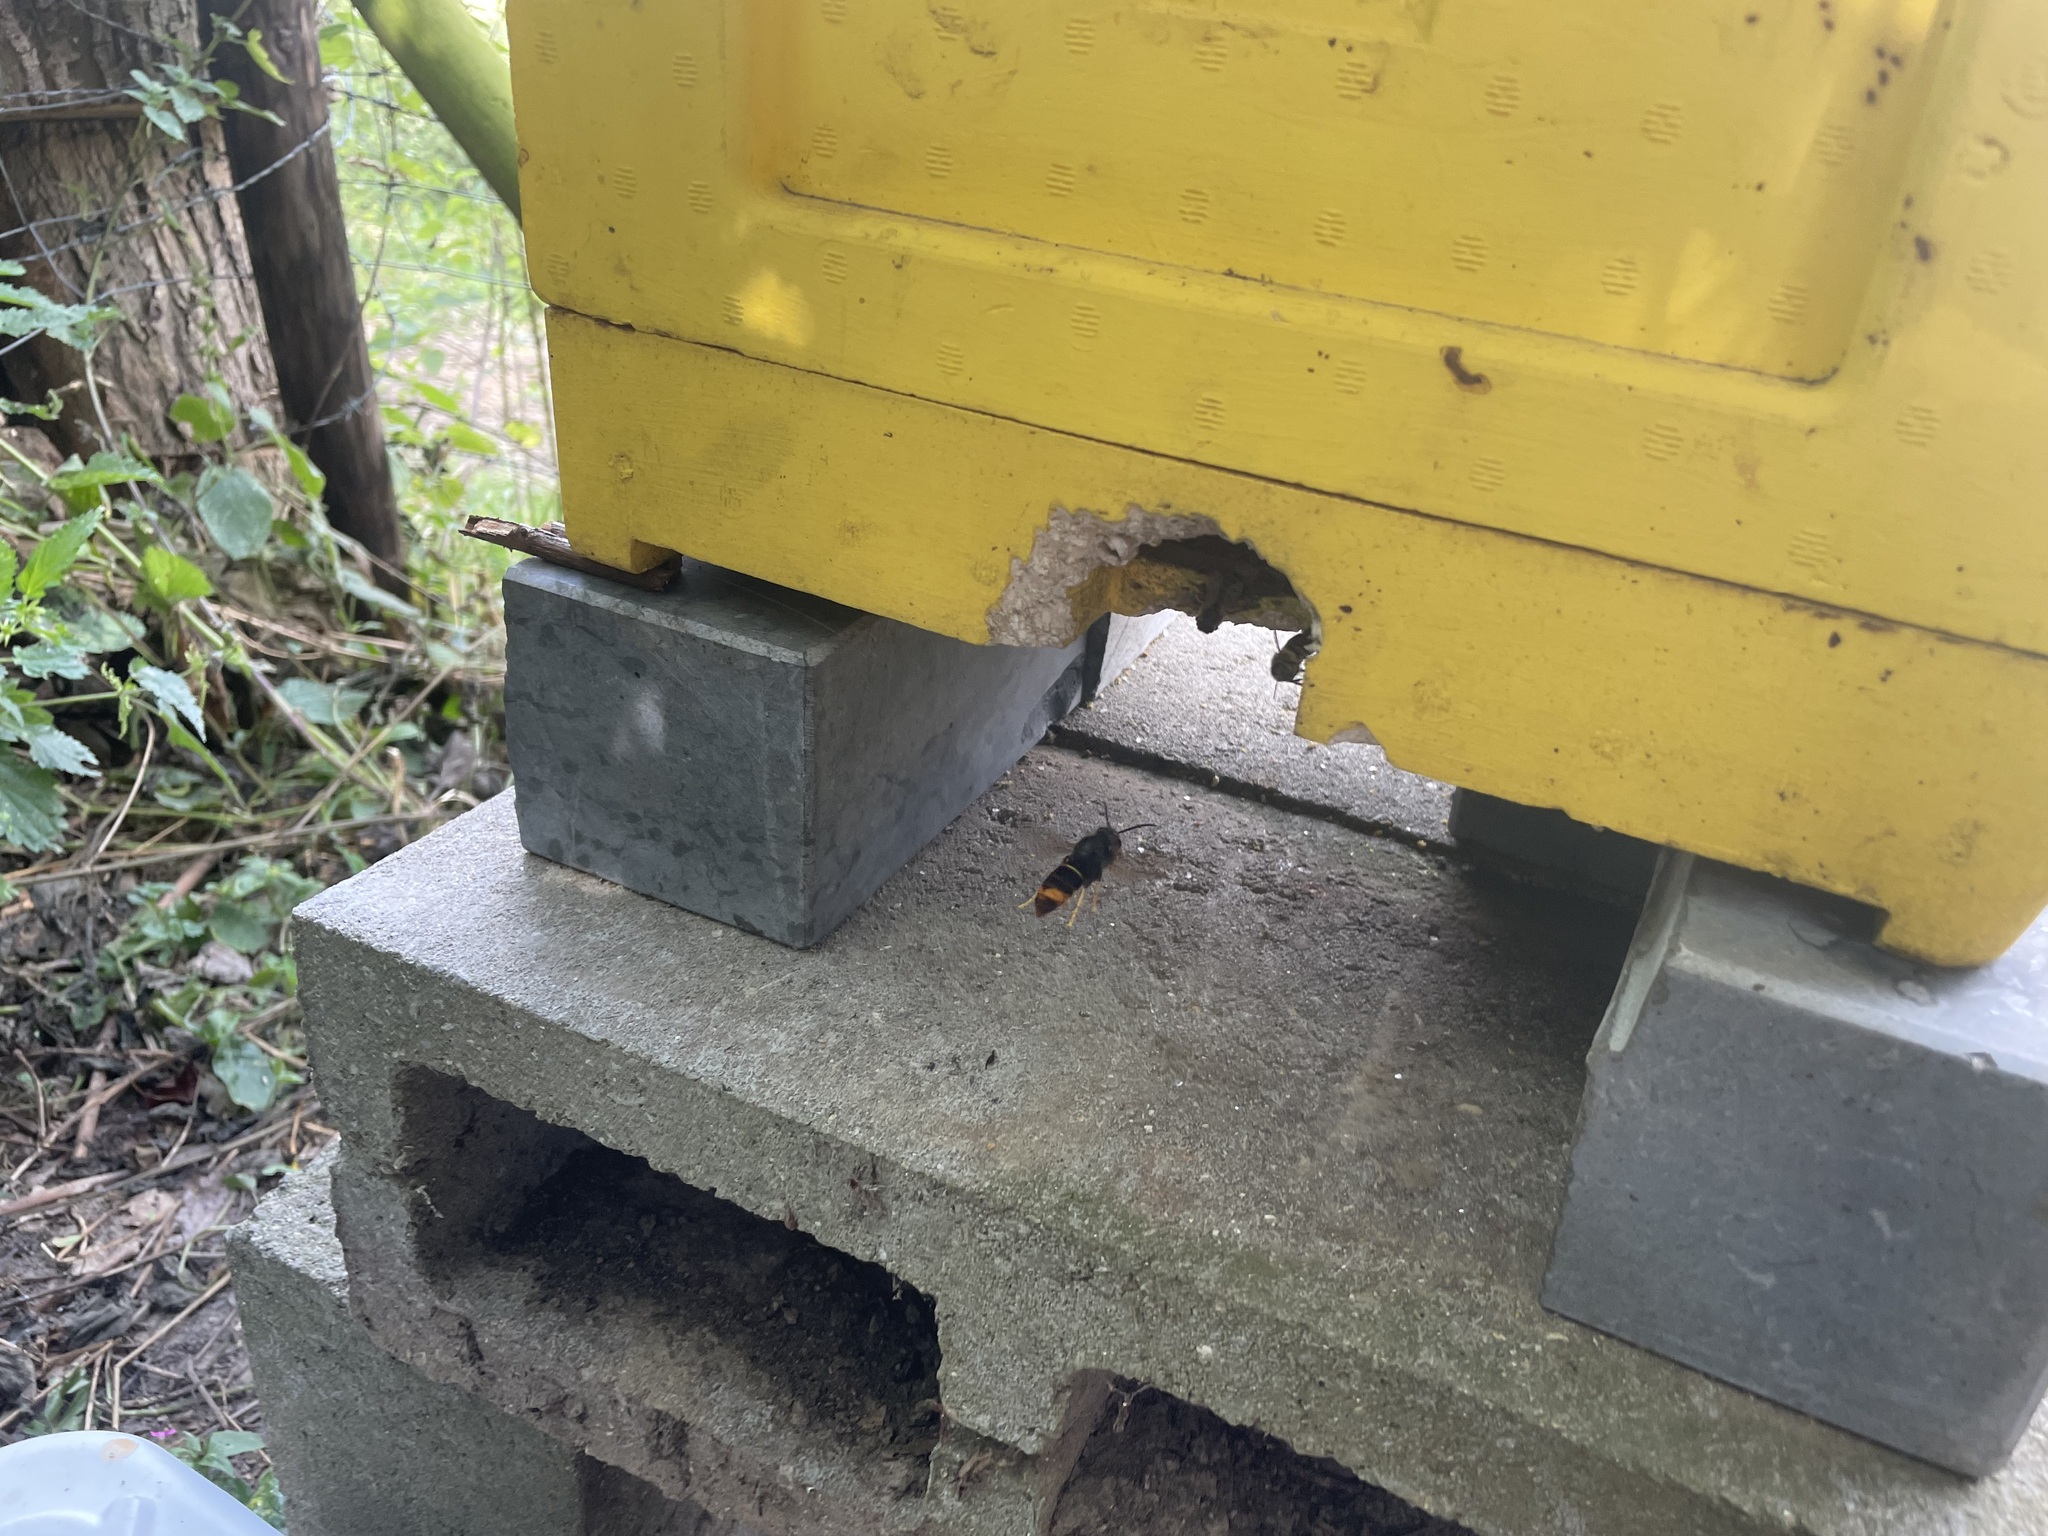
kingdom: Animalia
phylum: Arthropoda
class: Insecta
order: Hymenoptera
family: Vespidae
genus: Vespa
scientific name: Vespa velutina
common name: Asian hornet
